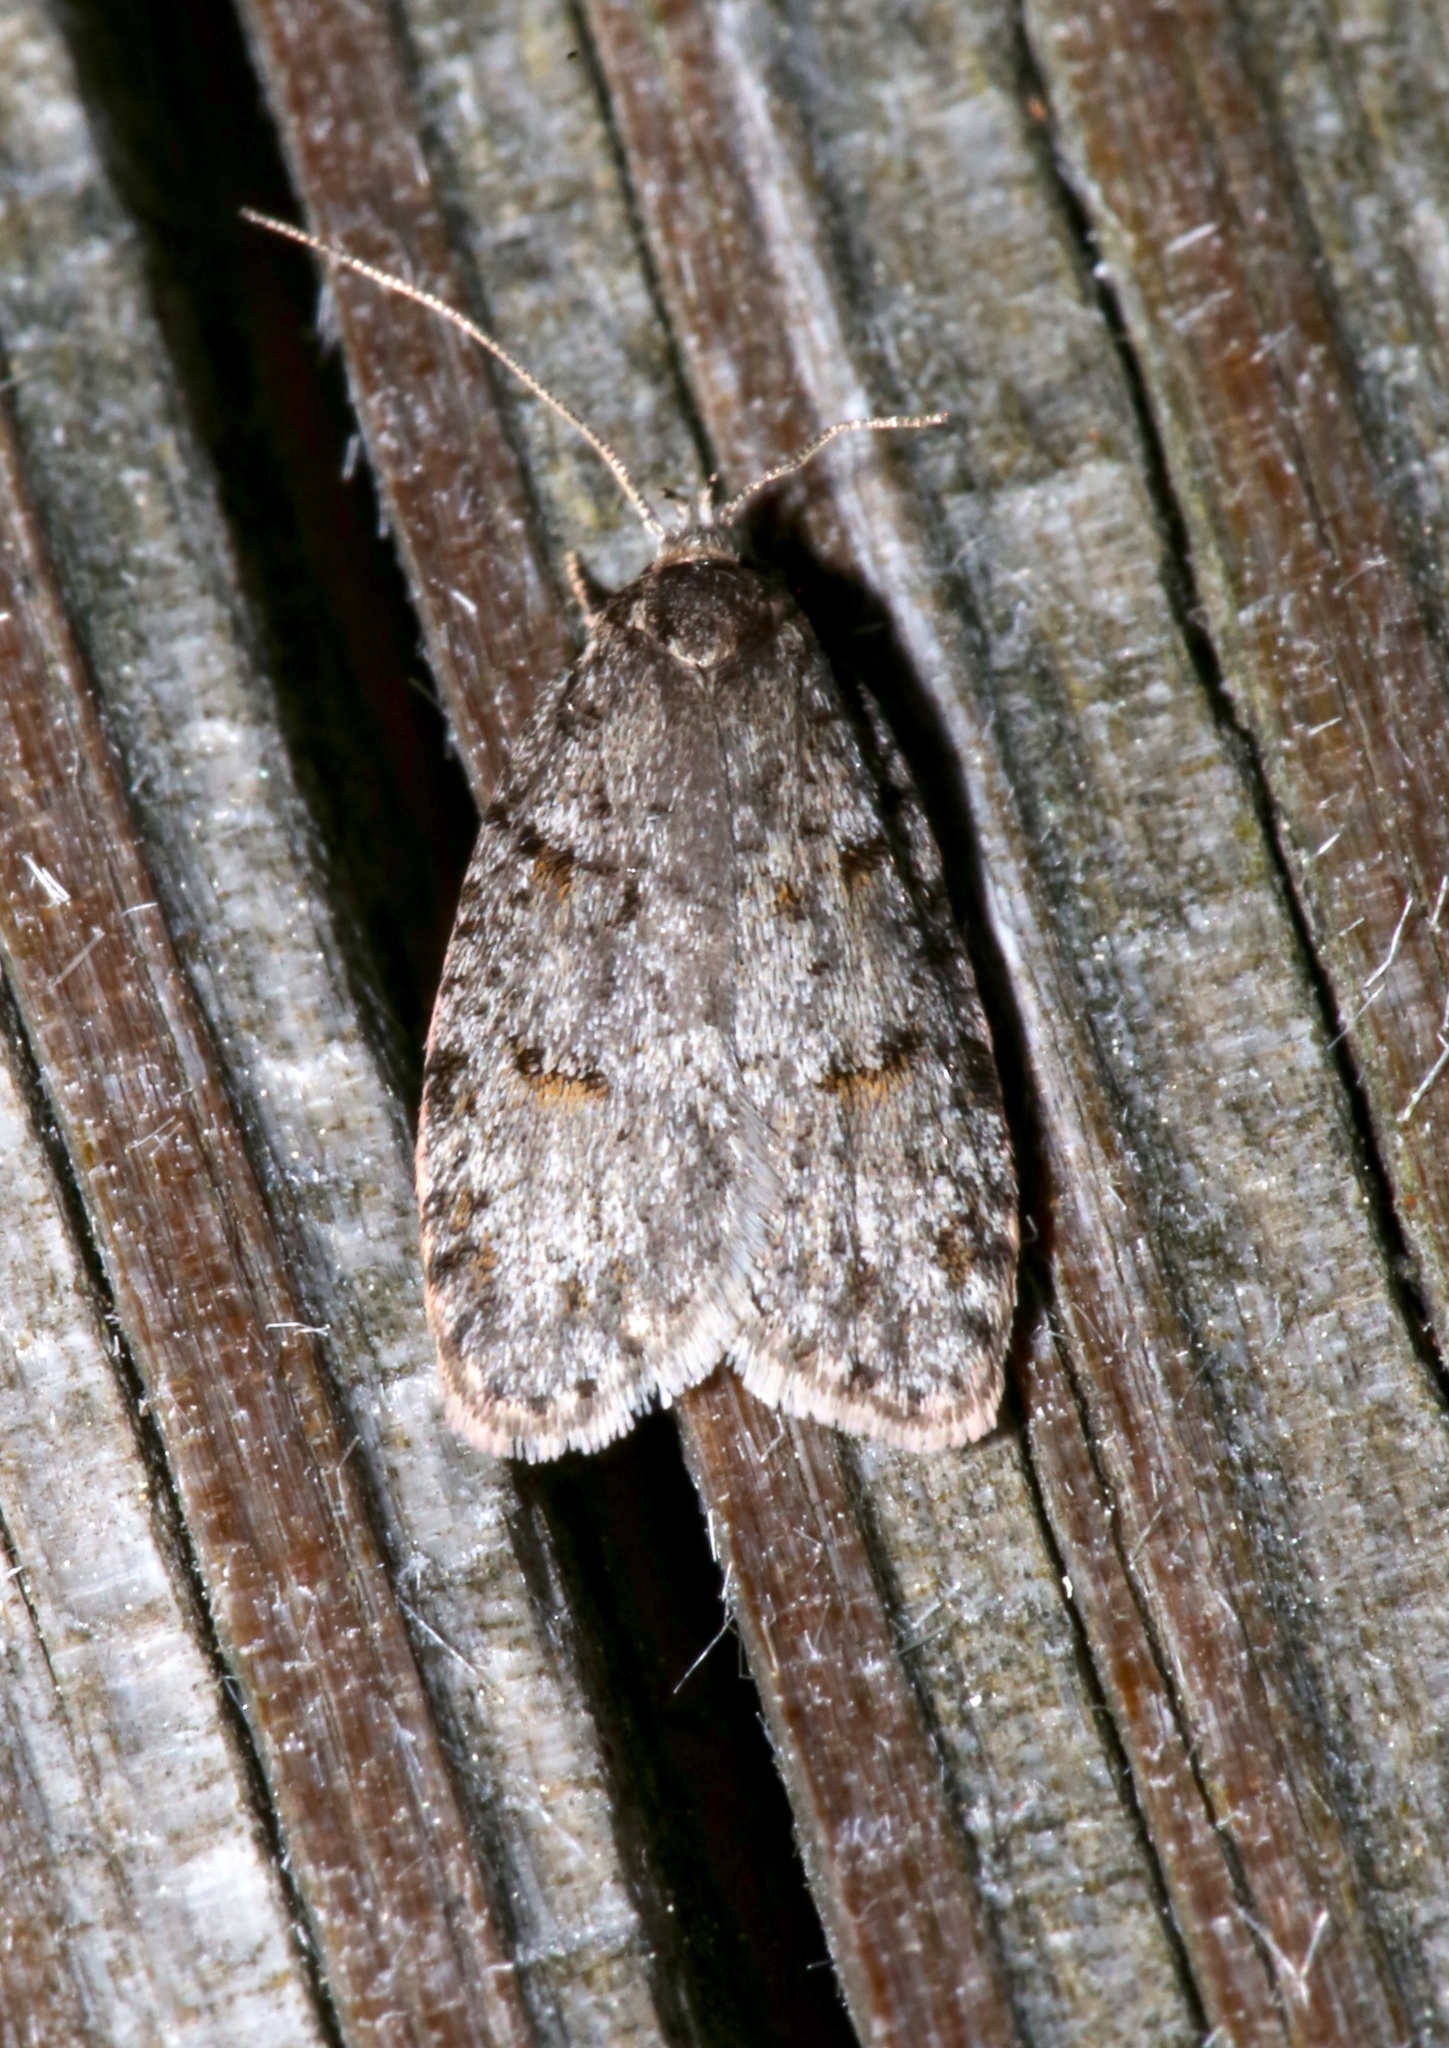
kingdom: Animalia
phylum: Arthropoda
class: Insecta
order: Lepidoptera
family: Depressariidae
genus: Bibarrambla
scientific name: Bibarrambla allenella
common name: Bog bibarrambla moth
